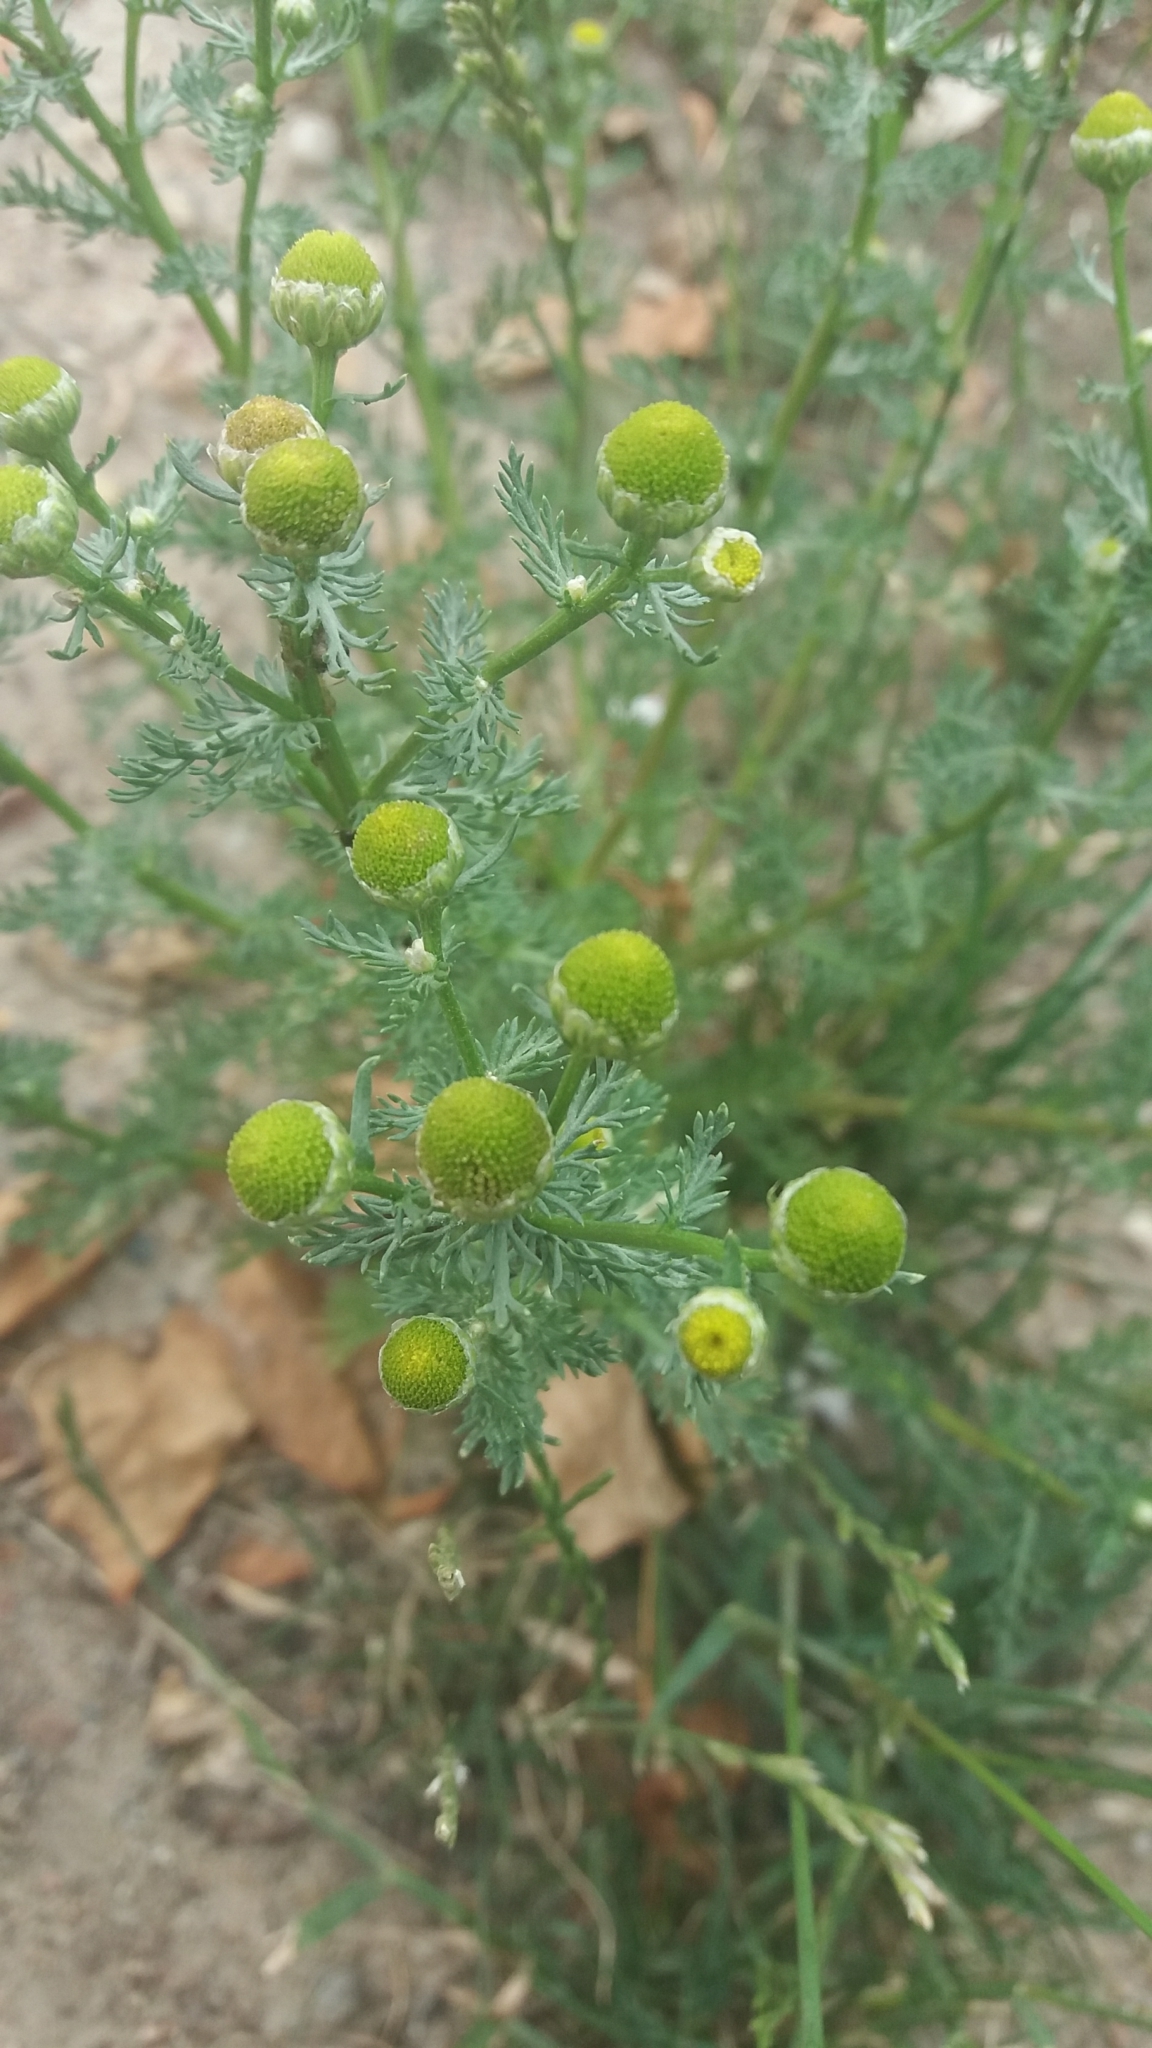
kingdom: Plantae
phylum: Tracheophyta
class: Magnoliopsida
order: Asterales
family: Asteraceae
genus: Matricaria
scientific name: Matricaria discoidea
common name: Disc mayweed
